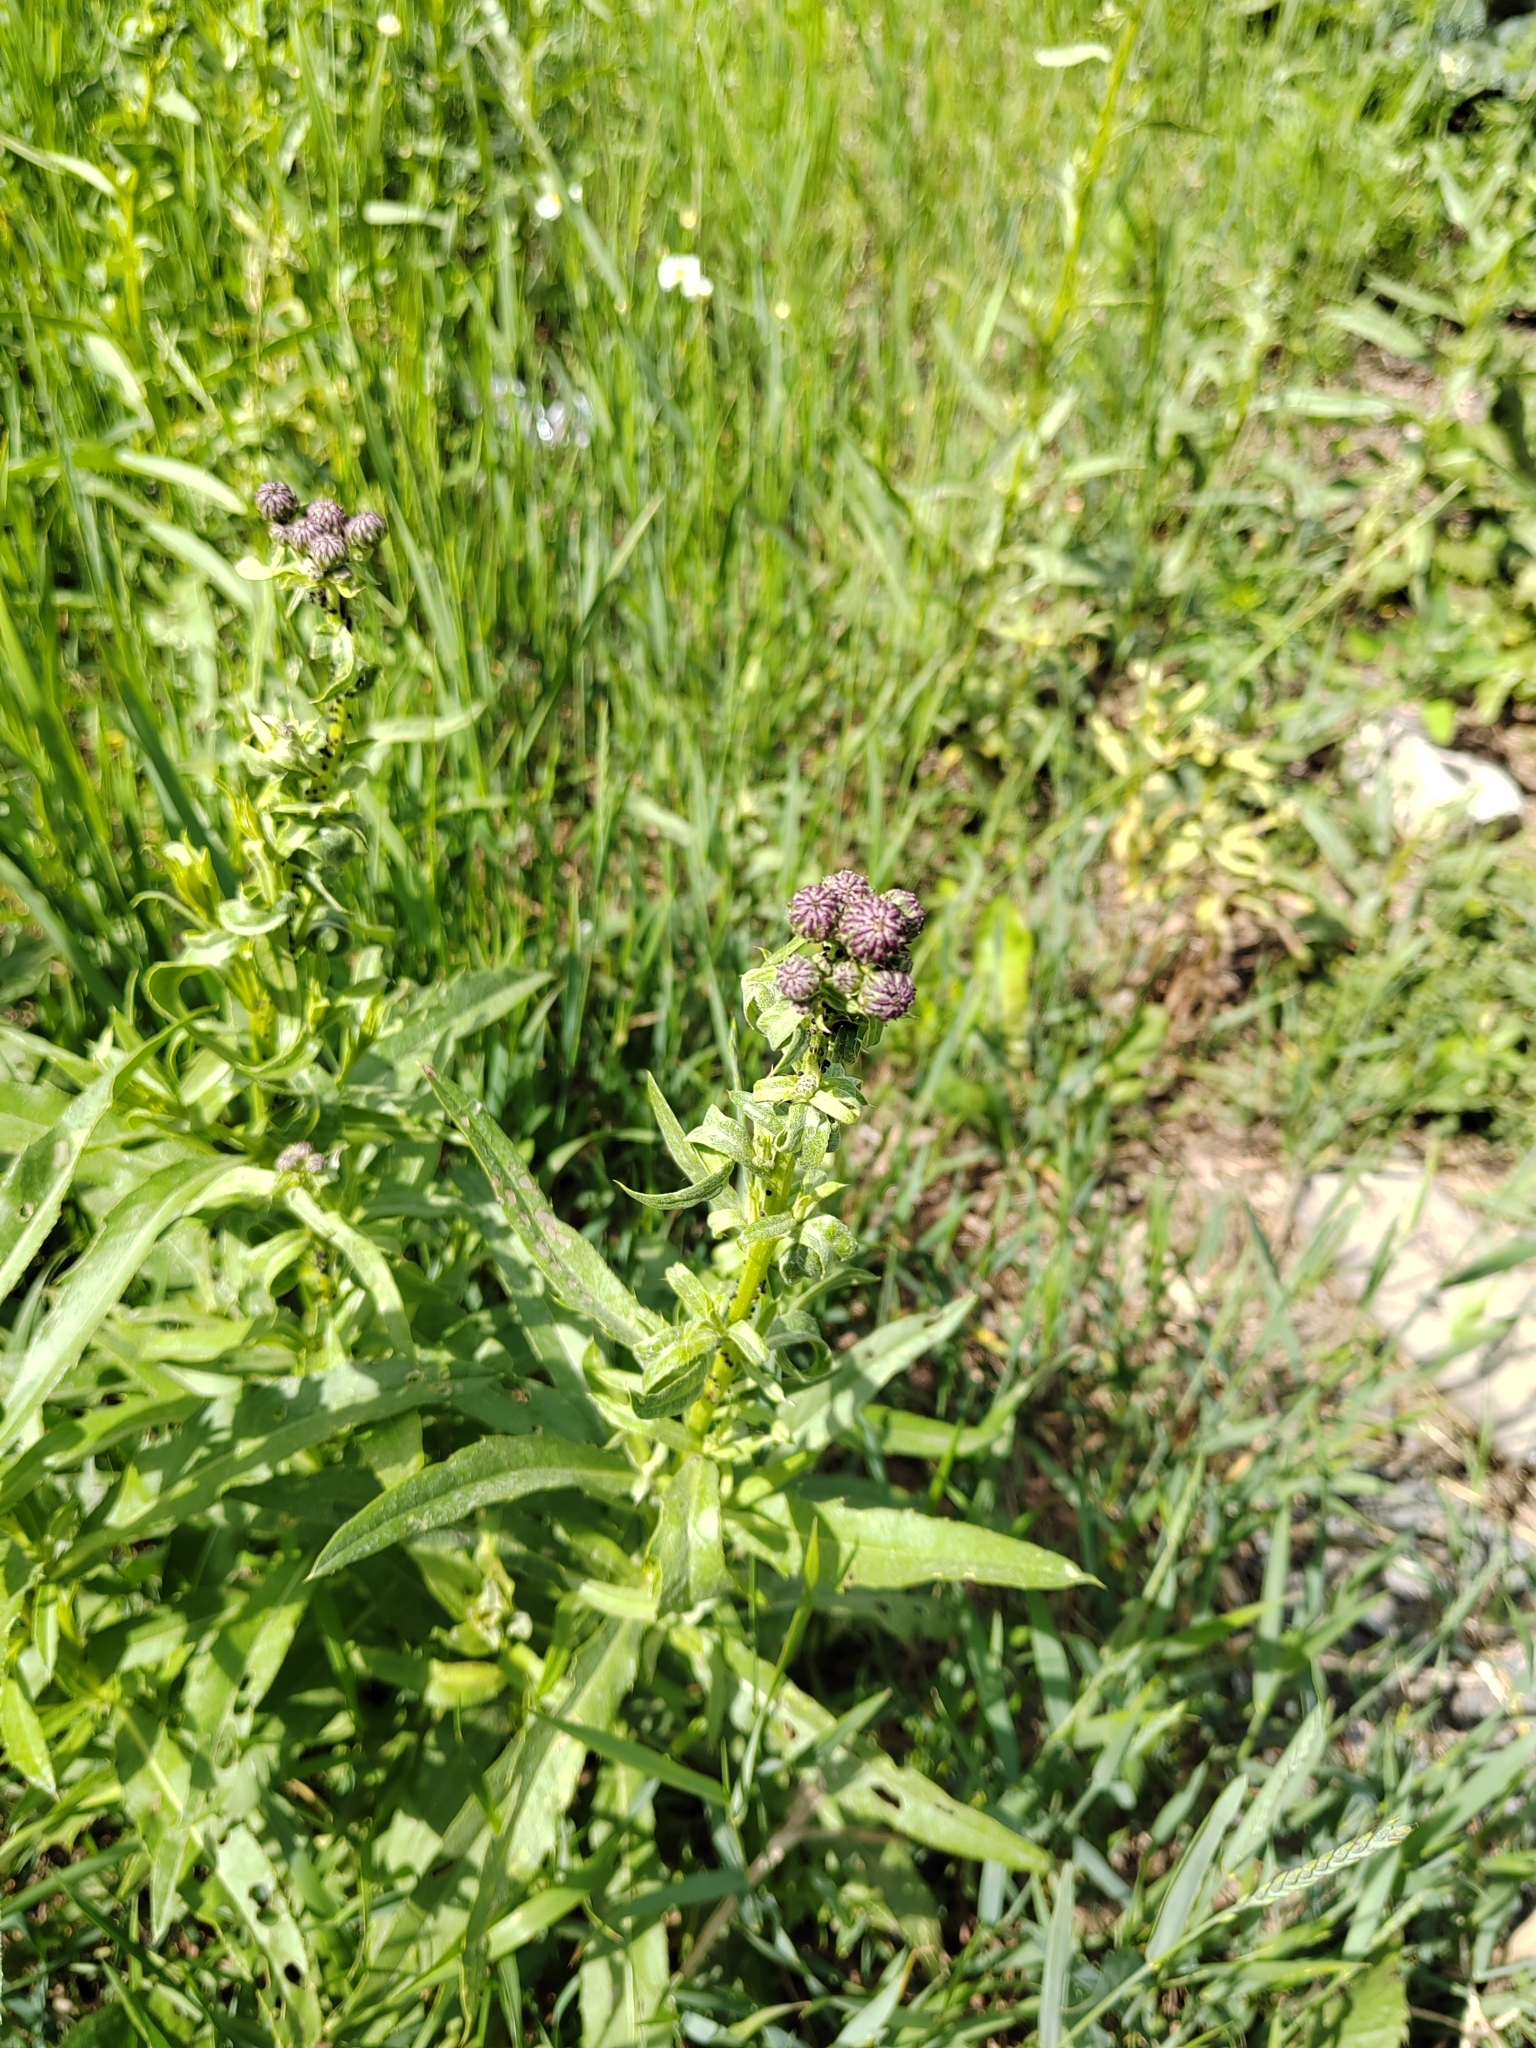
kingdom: Plantae
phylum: Tracheophyta
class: Magnoliopsida
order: Asterales
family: Asteraceae
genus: Cirsium
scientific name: Cirsium arvense
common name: Creeping thistle
